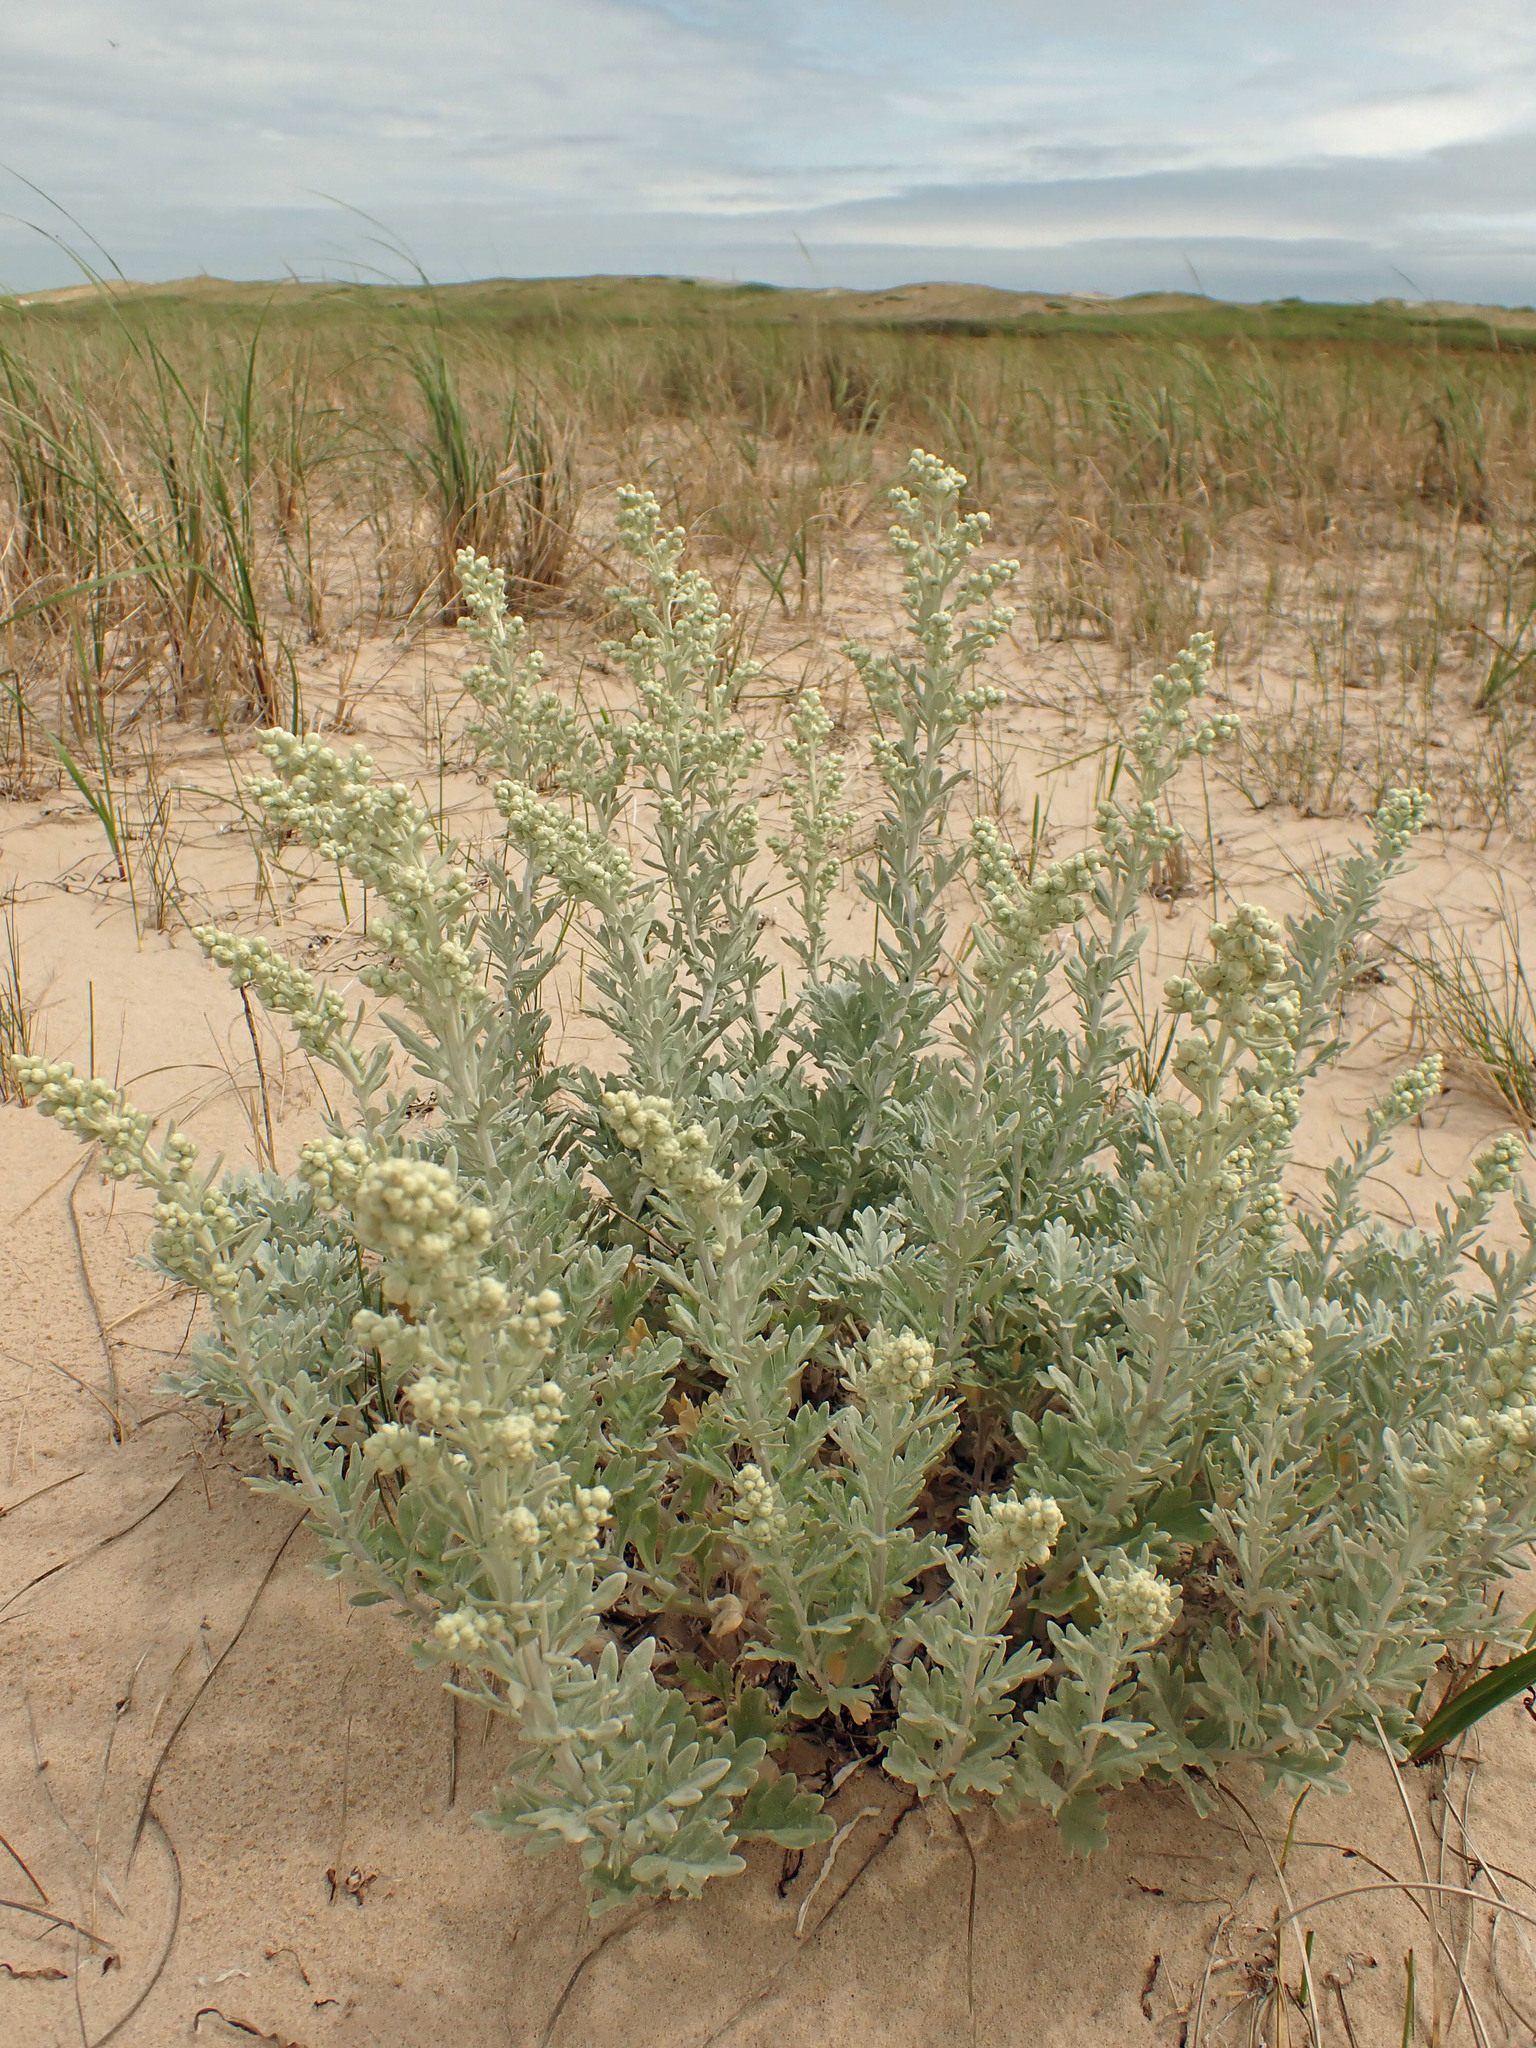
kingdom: Plantae
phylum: Tracheophyta
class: Magnoliopsida
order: Asterales
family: Asteraceae
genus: Artemisia
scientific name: Artemisia stelleriana
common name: Beach wormwood
